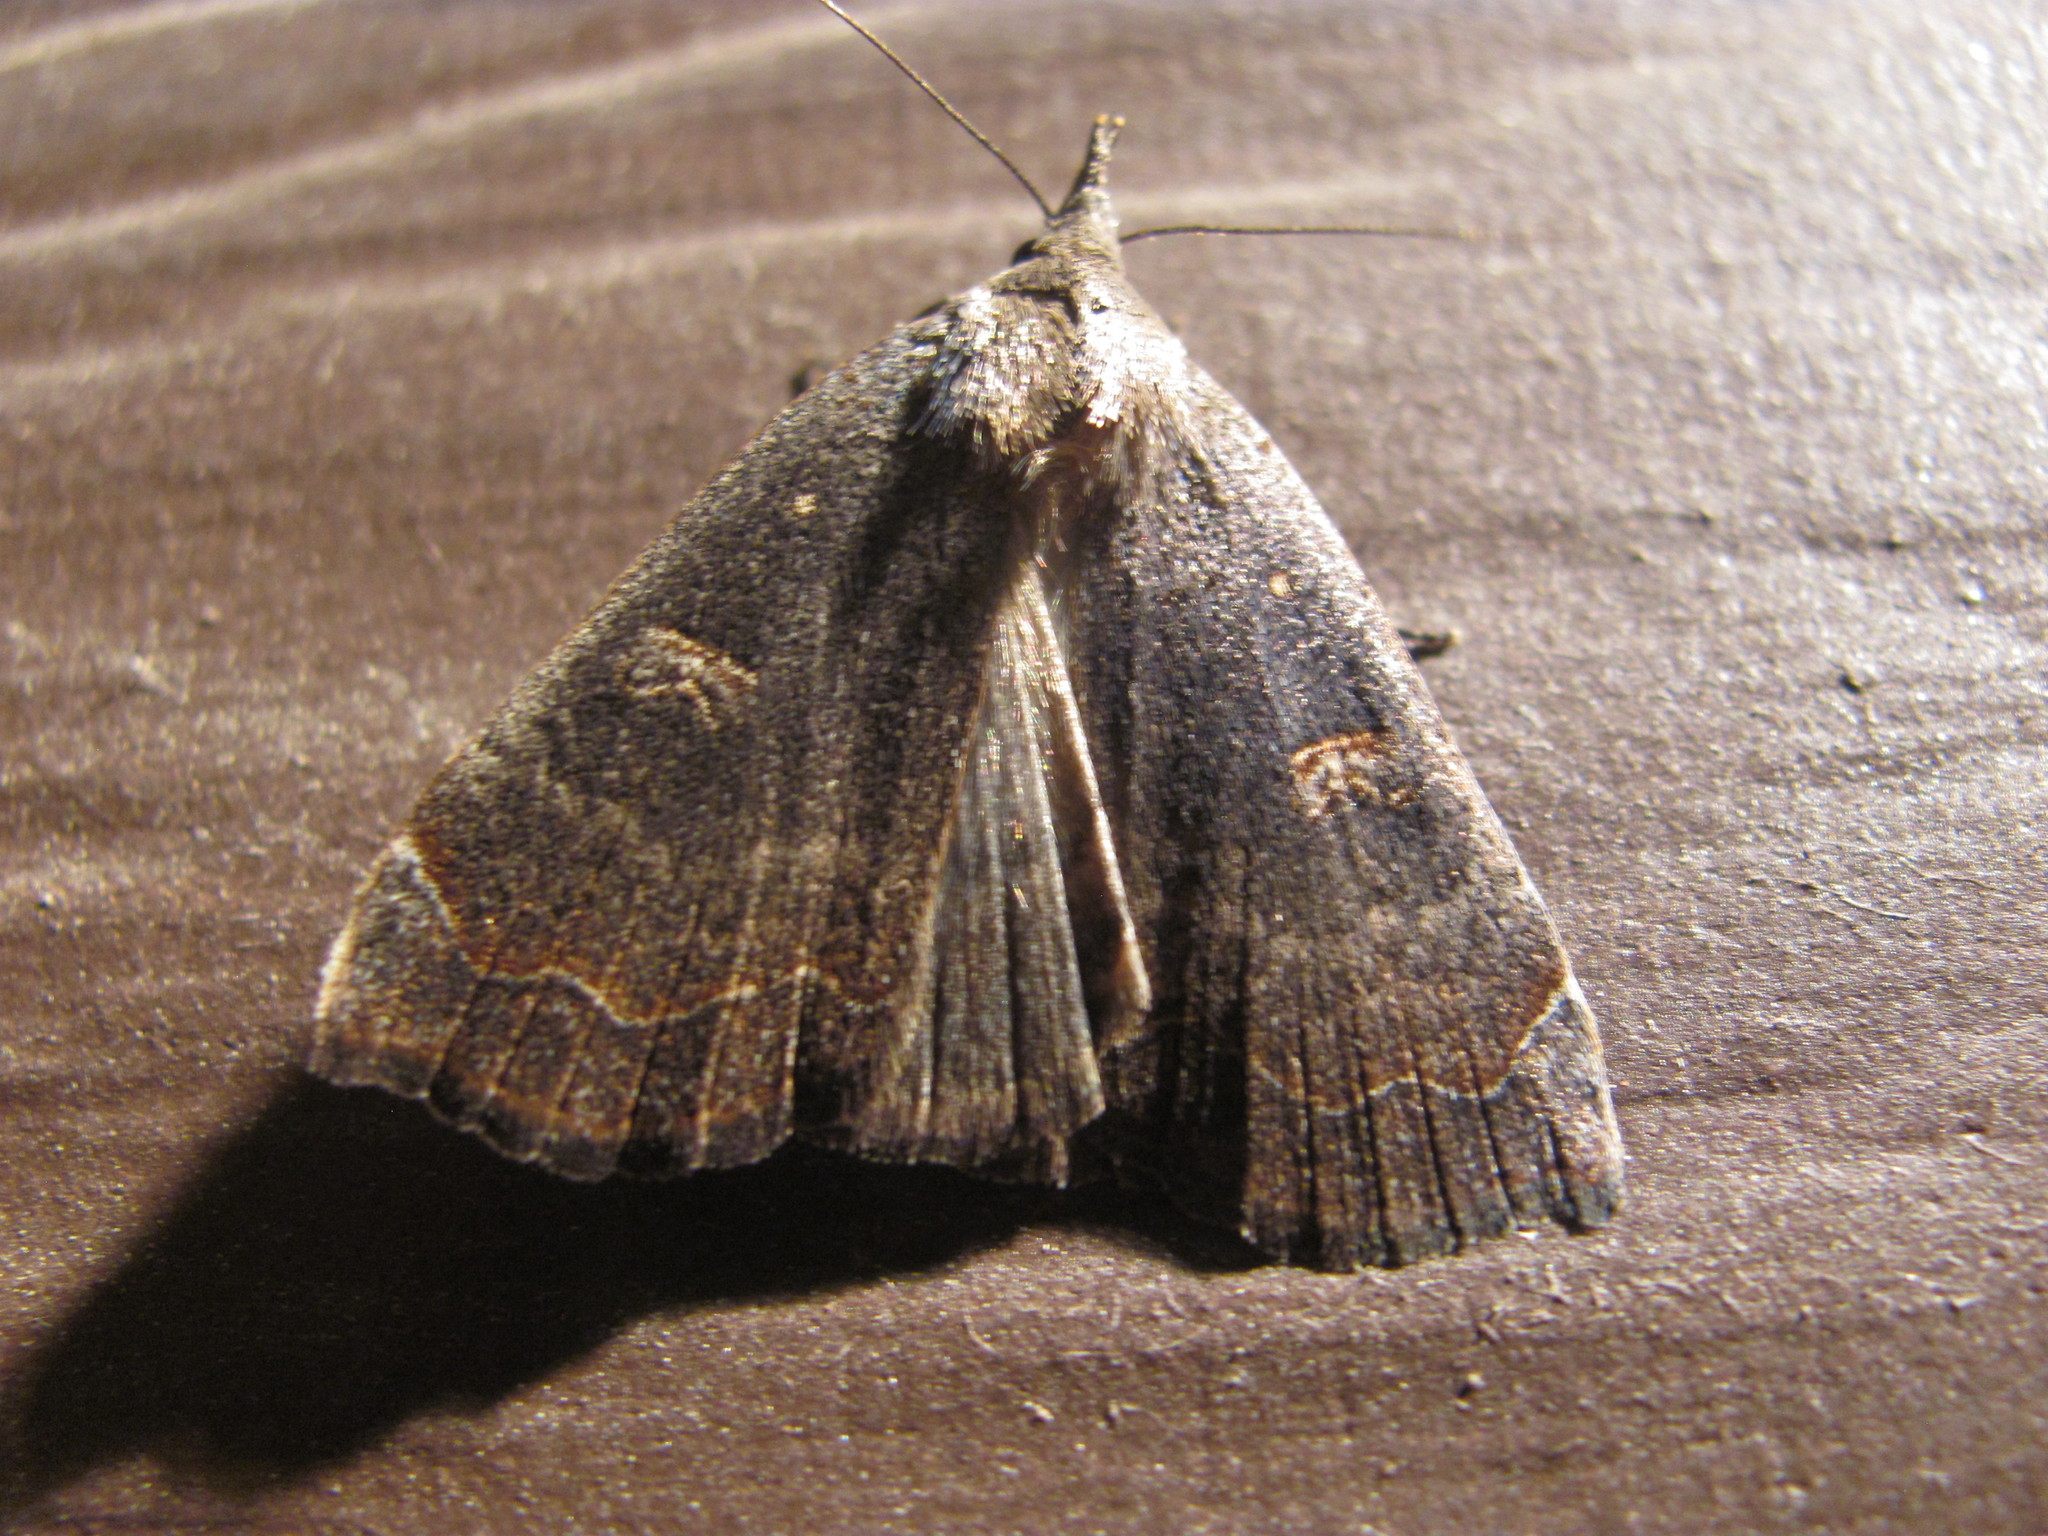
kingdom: Animalia
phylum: Arthropoda
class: Insecta
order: Lepidoptera
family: Erebidae
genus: Rhapsa
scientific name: Rhapsa scotosialis
